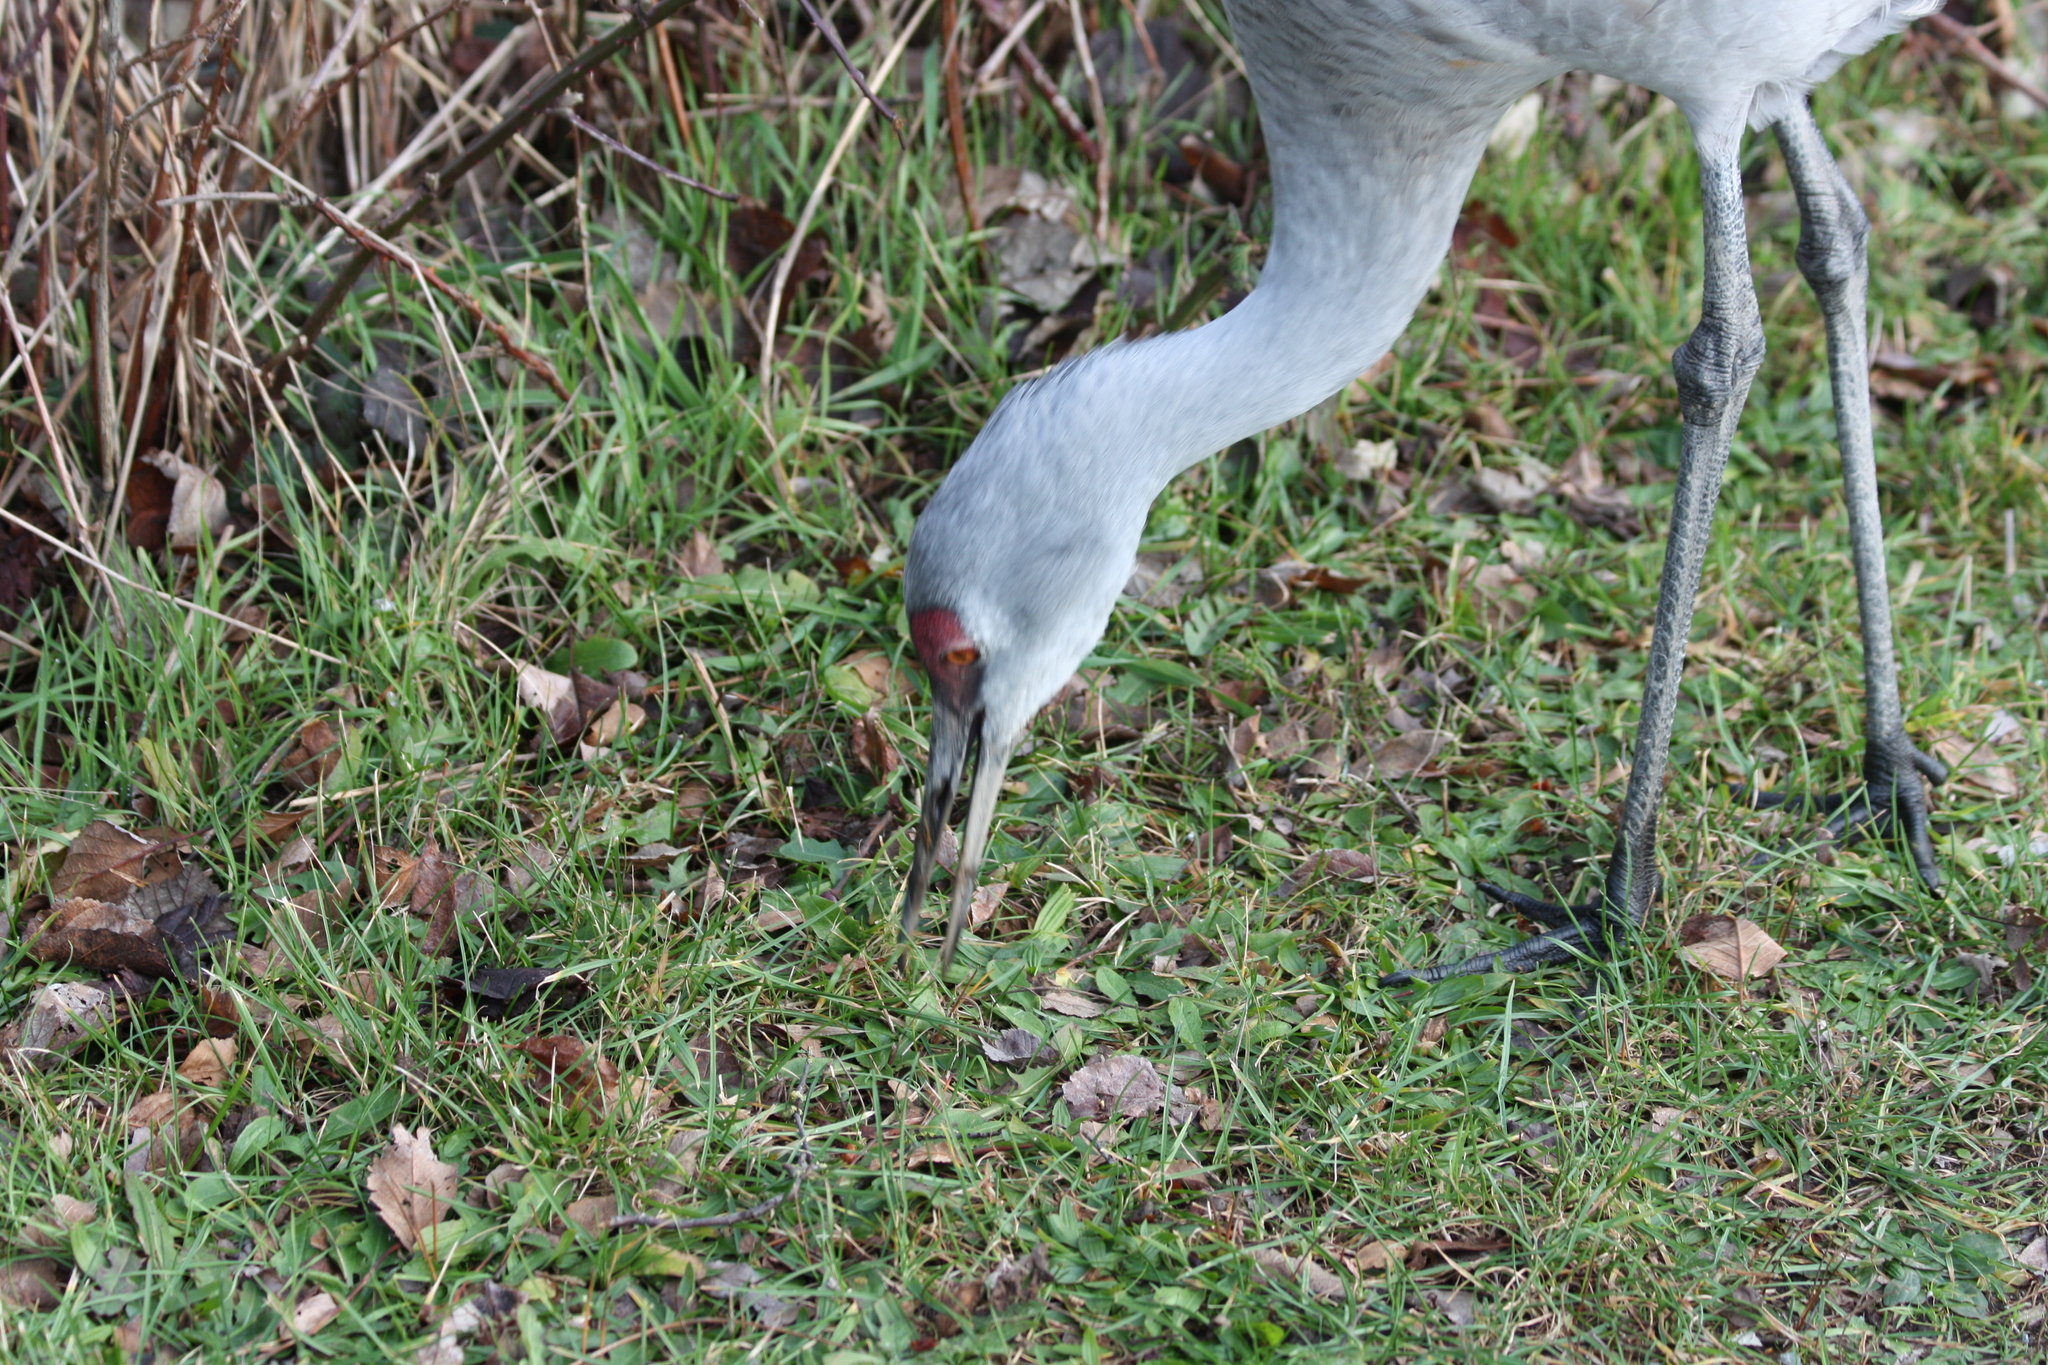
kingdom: Animalia
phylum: Chordata
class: Aves
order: Gruiformes
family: Gruidae
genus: Grus
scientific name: Grus canadensis
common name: Sandhill crane
